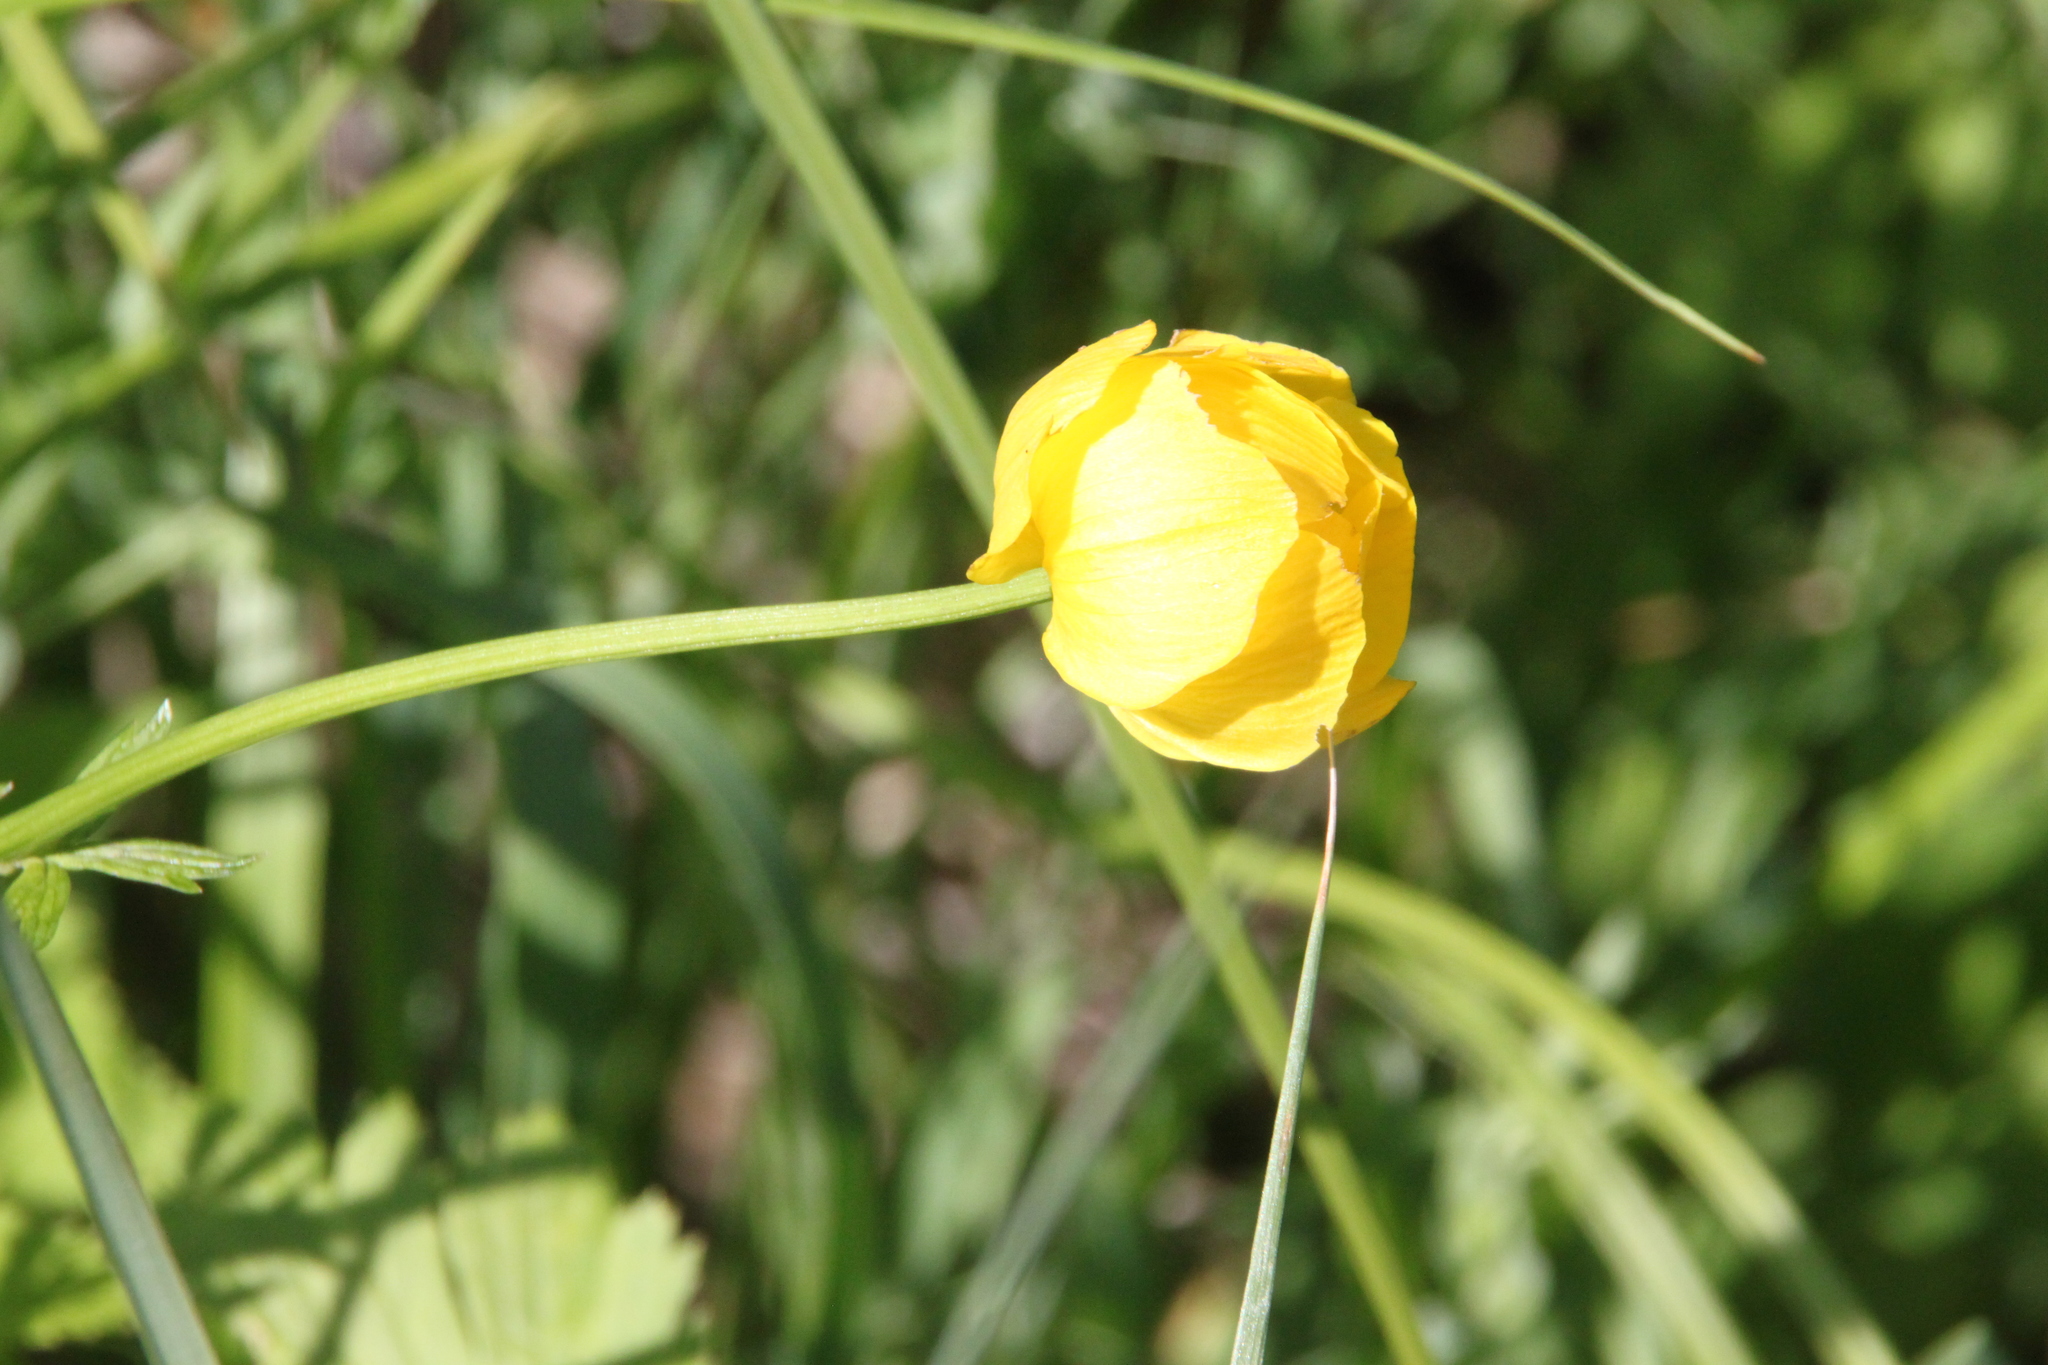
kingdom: Plantae
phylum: Tracheophyta
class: Magnoliopsida
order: Ranunculales
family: Ranunculaceae
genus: Trollius
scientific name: Trollius europaeus
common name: European globeflower
